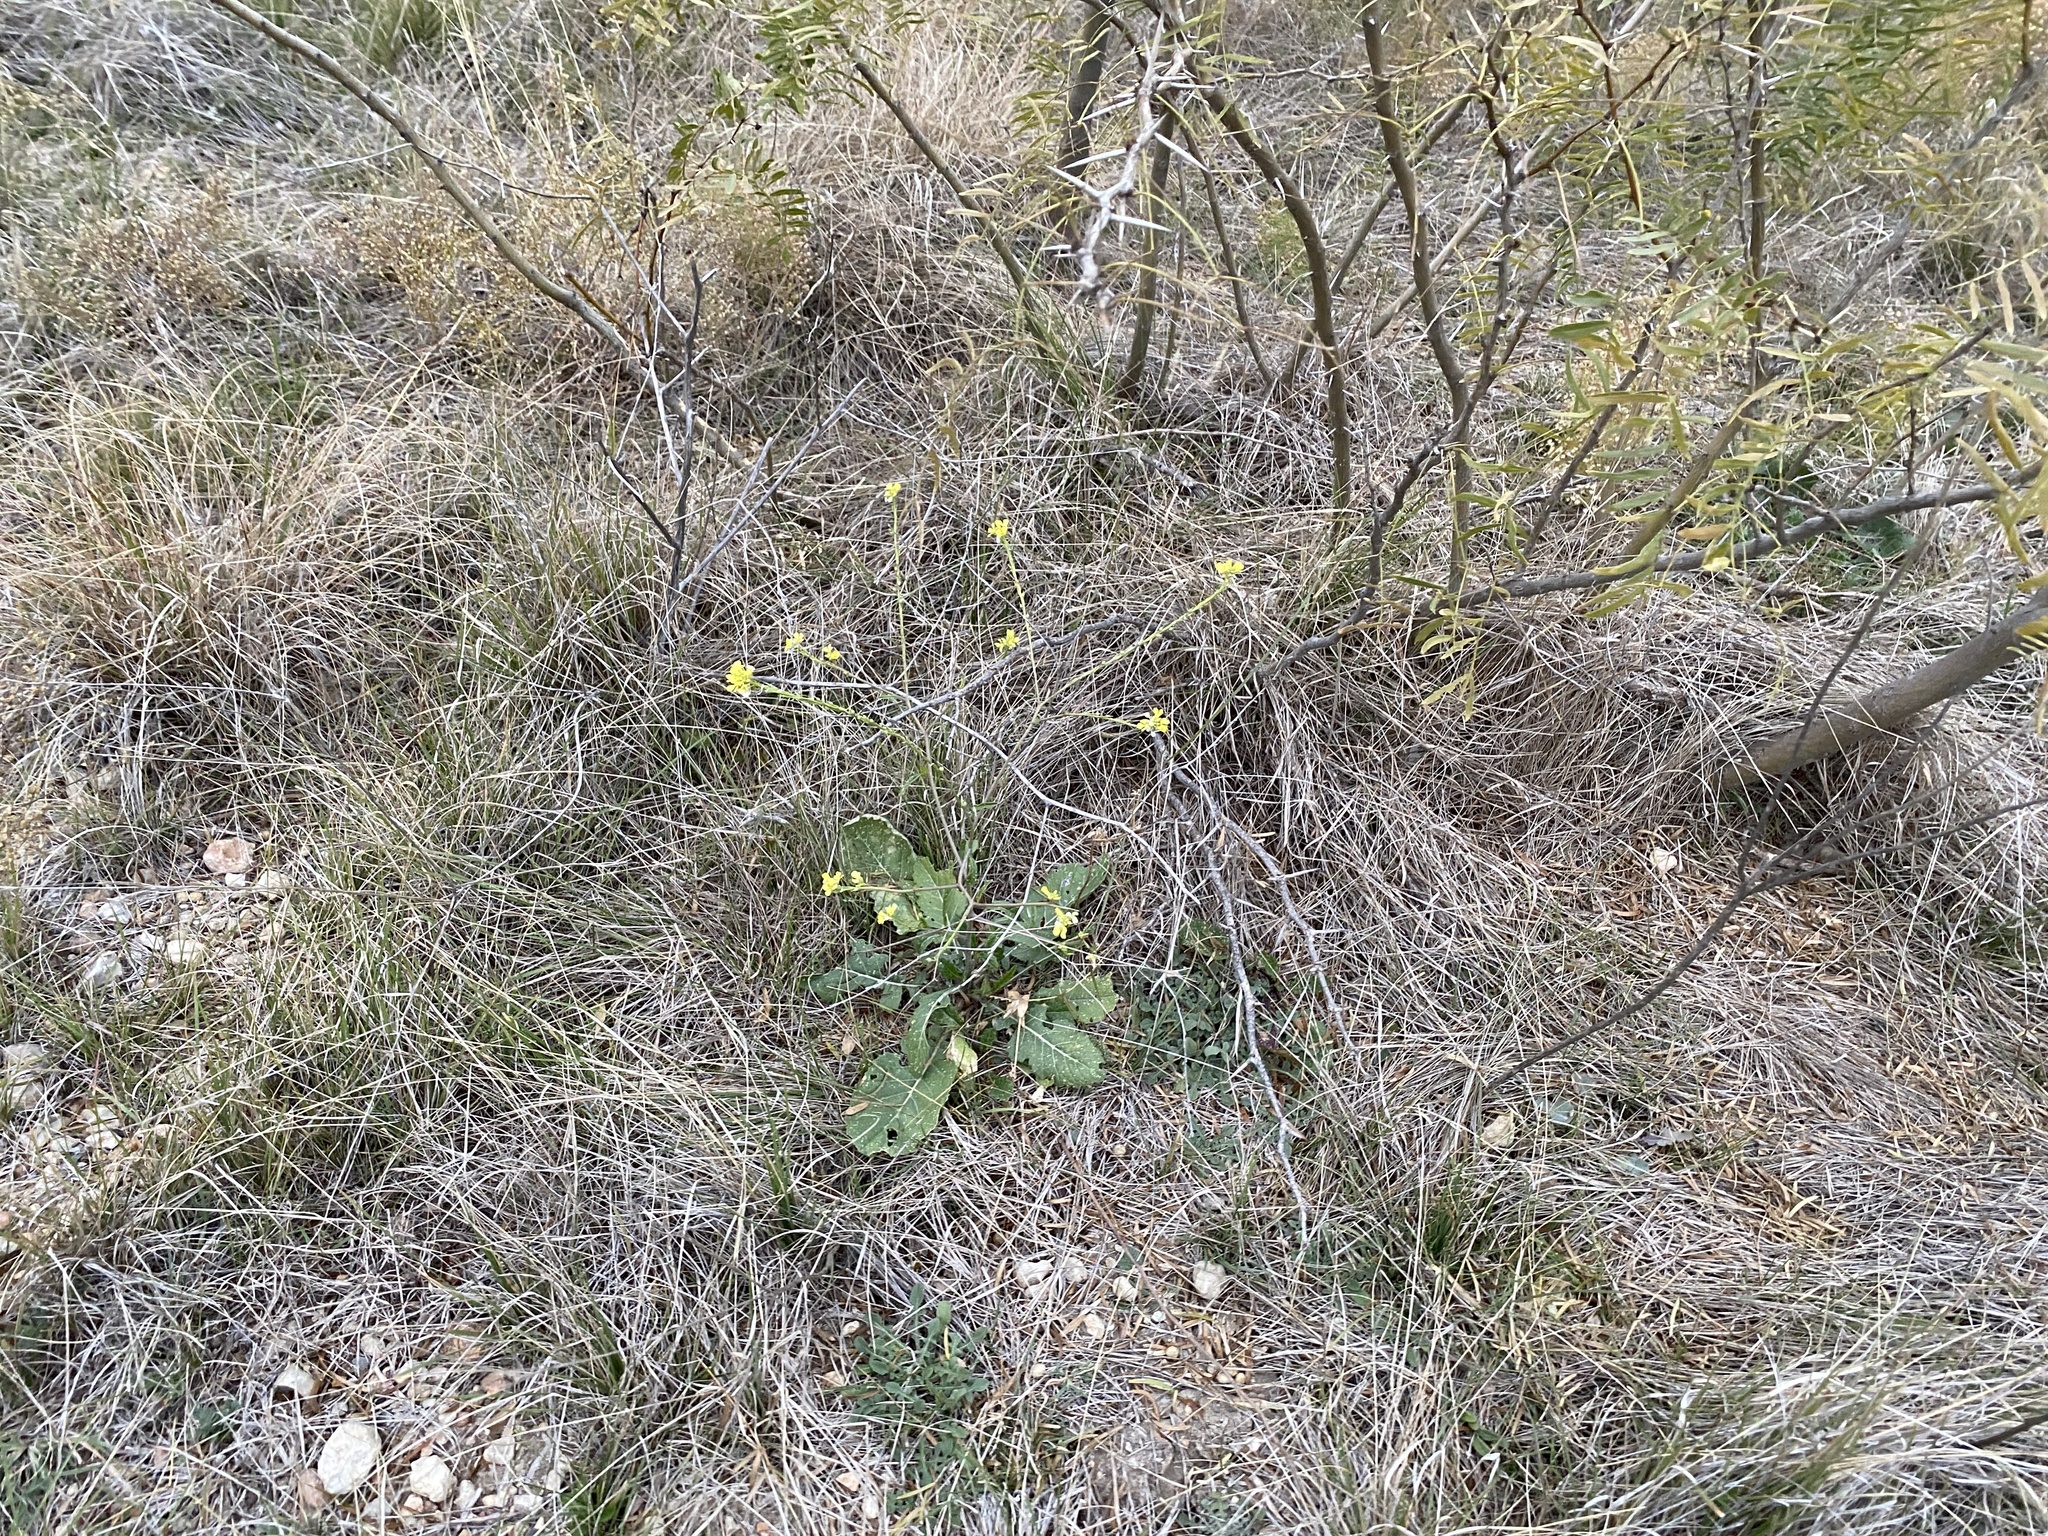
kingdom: Plantae
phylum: Tracheophyta
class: Magnoliopsida
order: Brassicales
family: Brassicaceae
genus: Rapistrum
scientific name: Rapistrum rugosum
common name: Annual bastardcabbage
